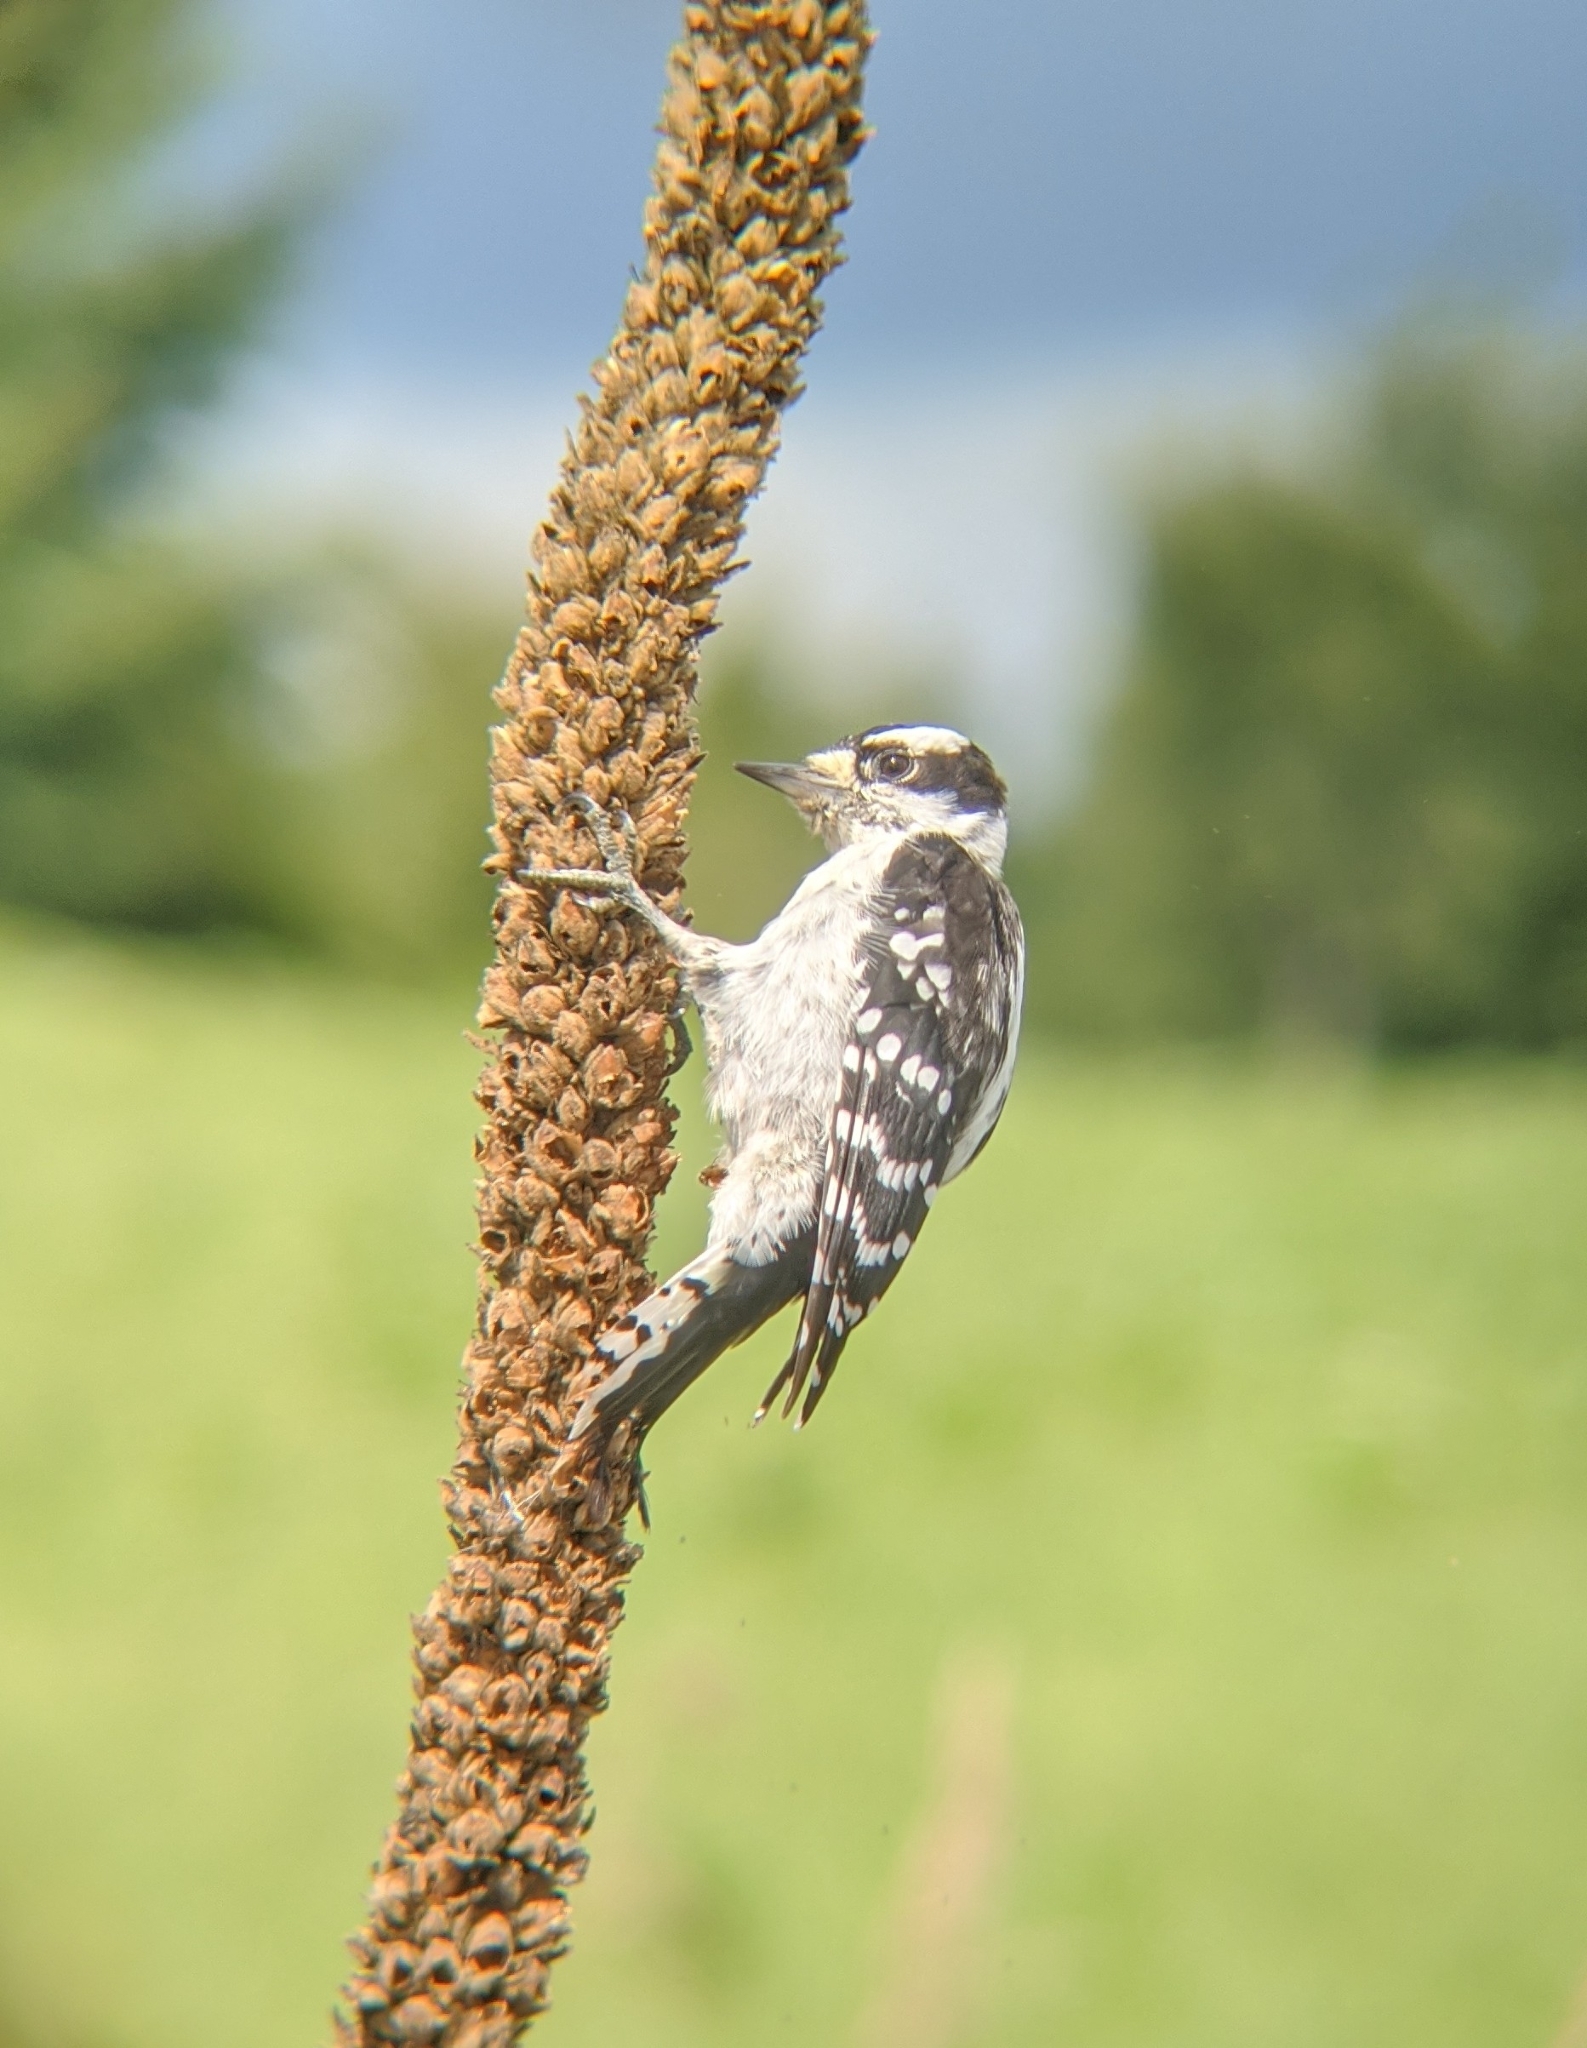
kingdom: Animalia
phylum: Chordata
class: Aves
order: Piciformes
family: Picidae
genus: Dryobates
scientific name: Dryobates pubescens
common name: Downy woodpecker
